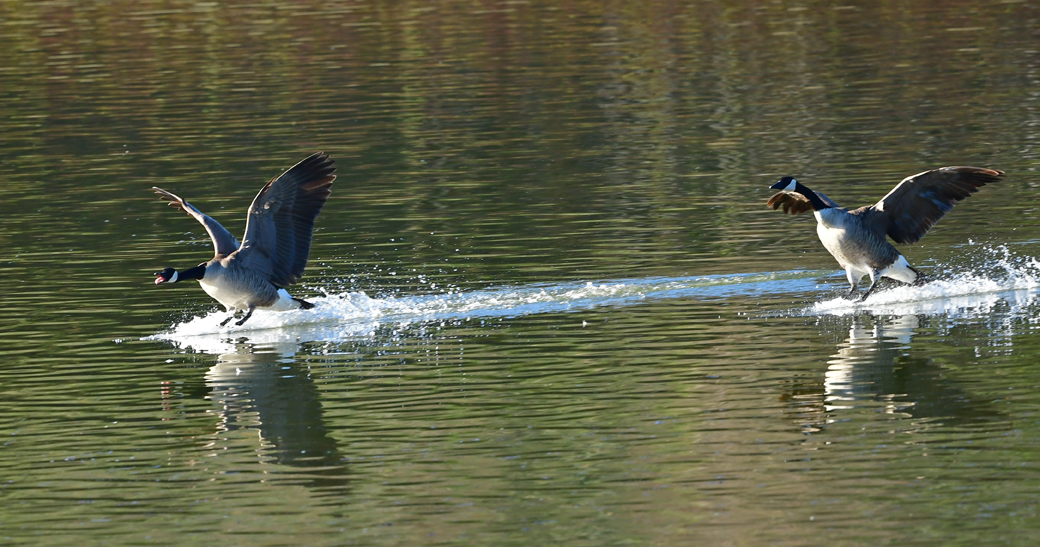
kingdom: Animalia
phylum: Chordata
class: Aves
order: Anseriformes
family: Anatidae
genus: Branta
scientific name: Branta canadensis
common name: Canada goose
